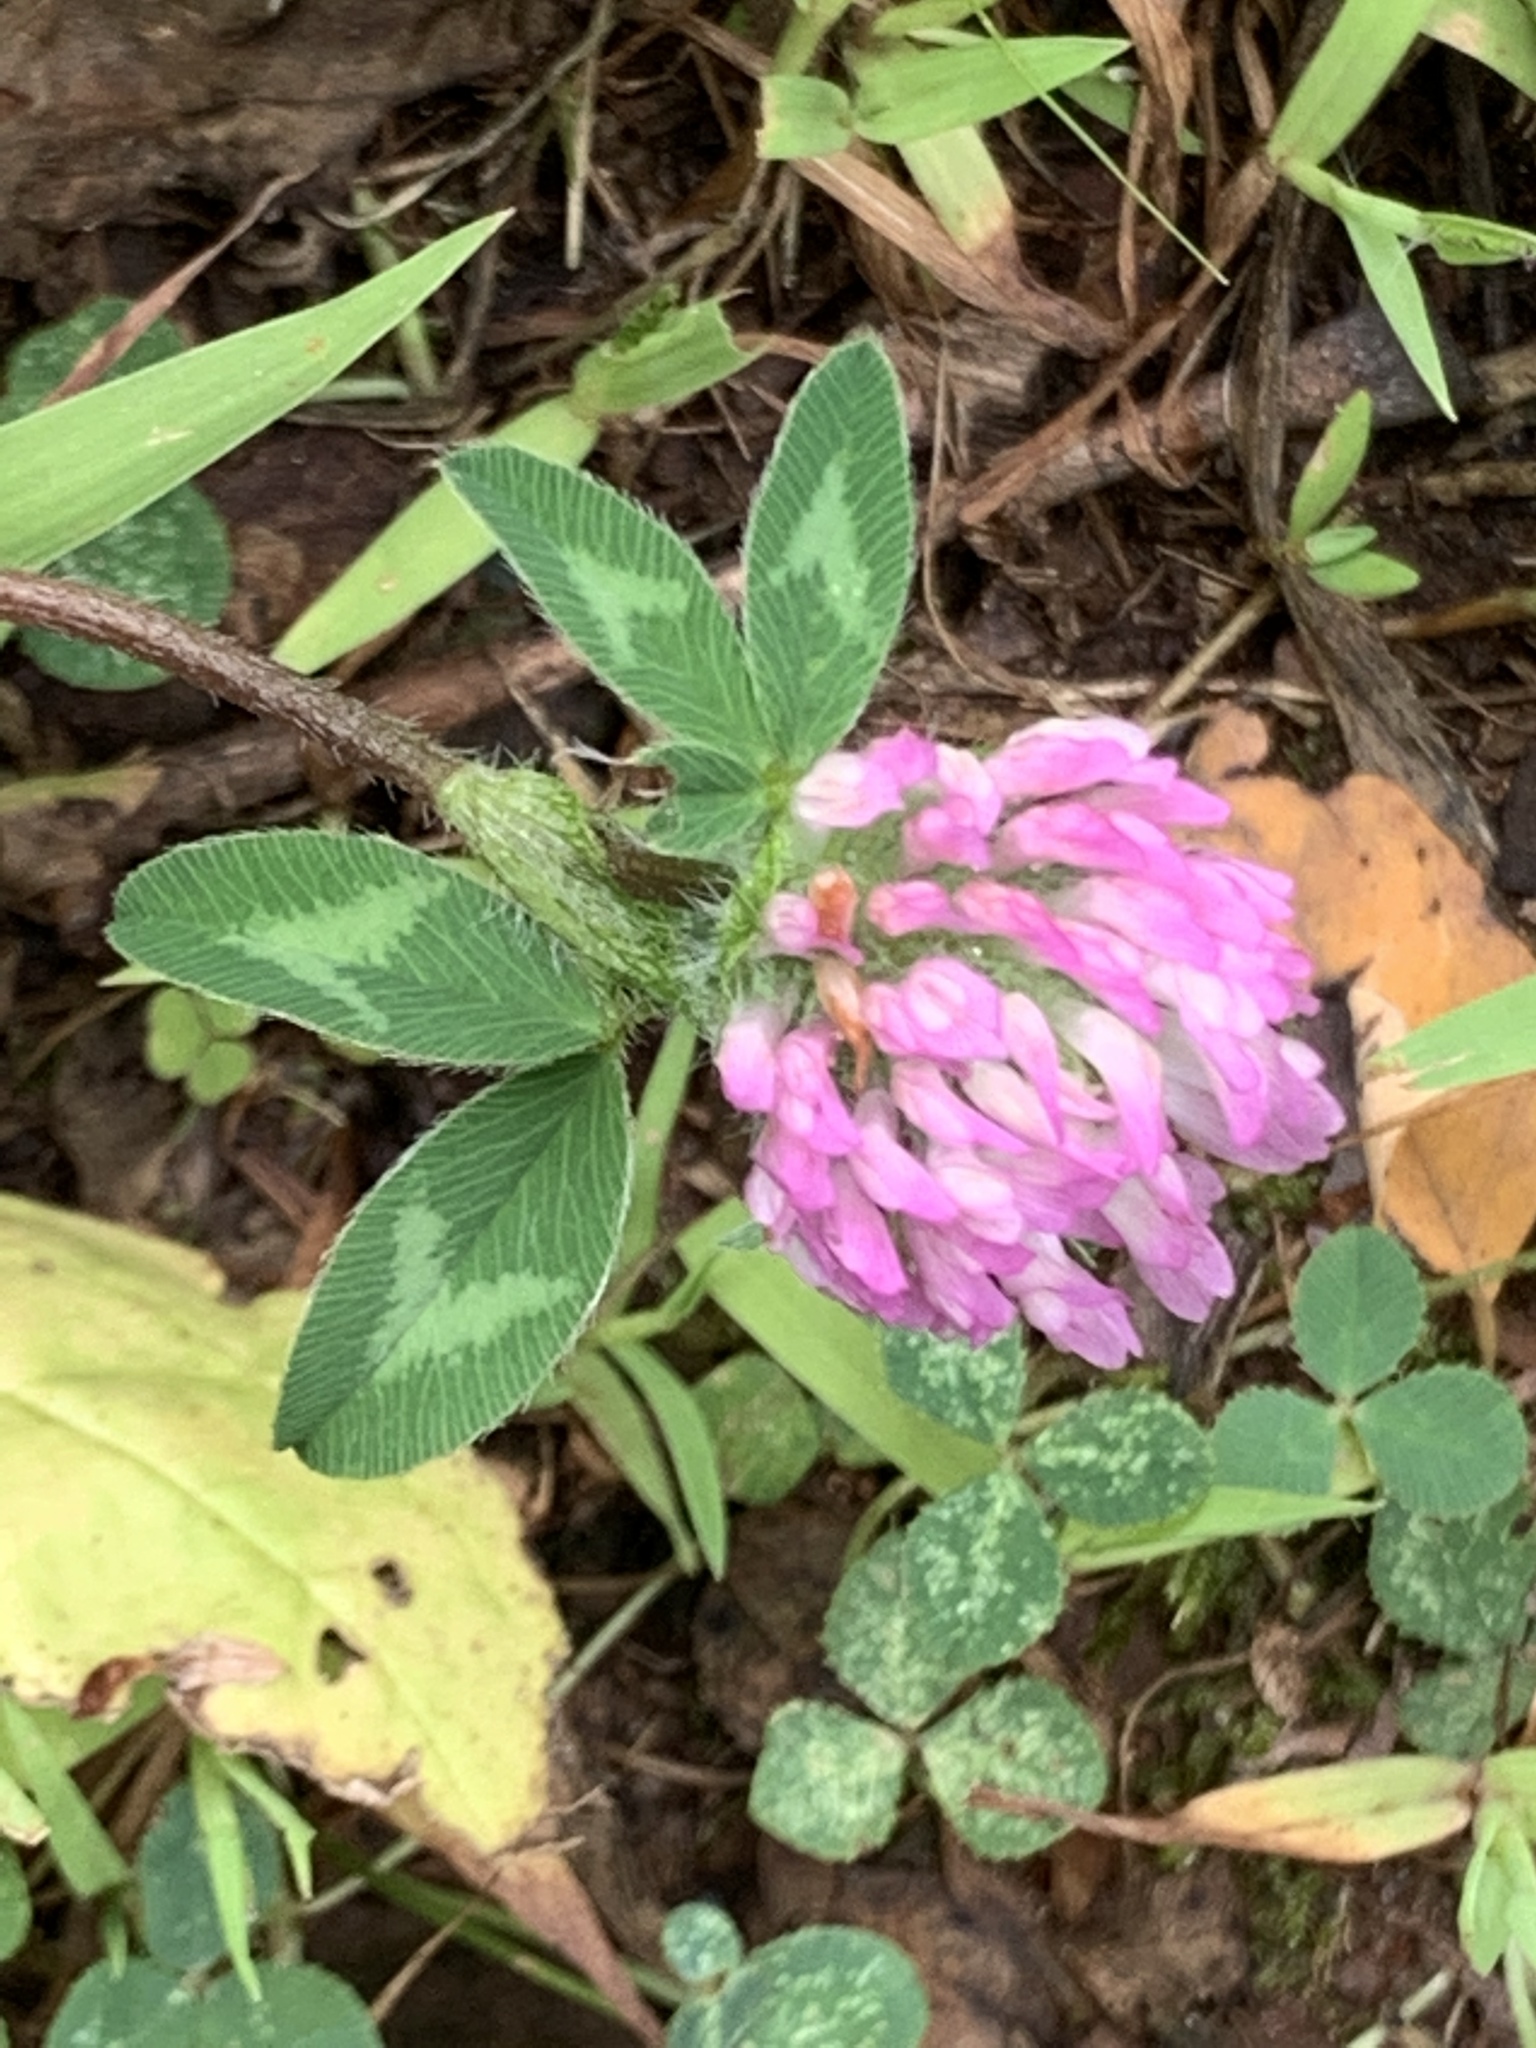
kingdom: Plantae
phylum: Tracheophyta
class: Magnoliopsida
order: Fabales
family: Fabaceae
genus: Trifolium
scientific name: Trifolium pratense
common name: Red clover
